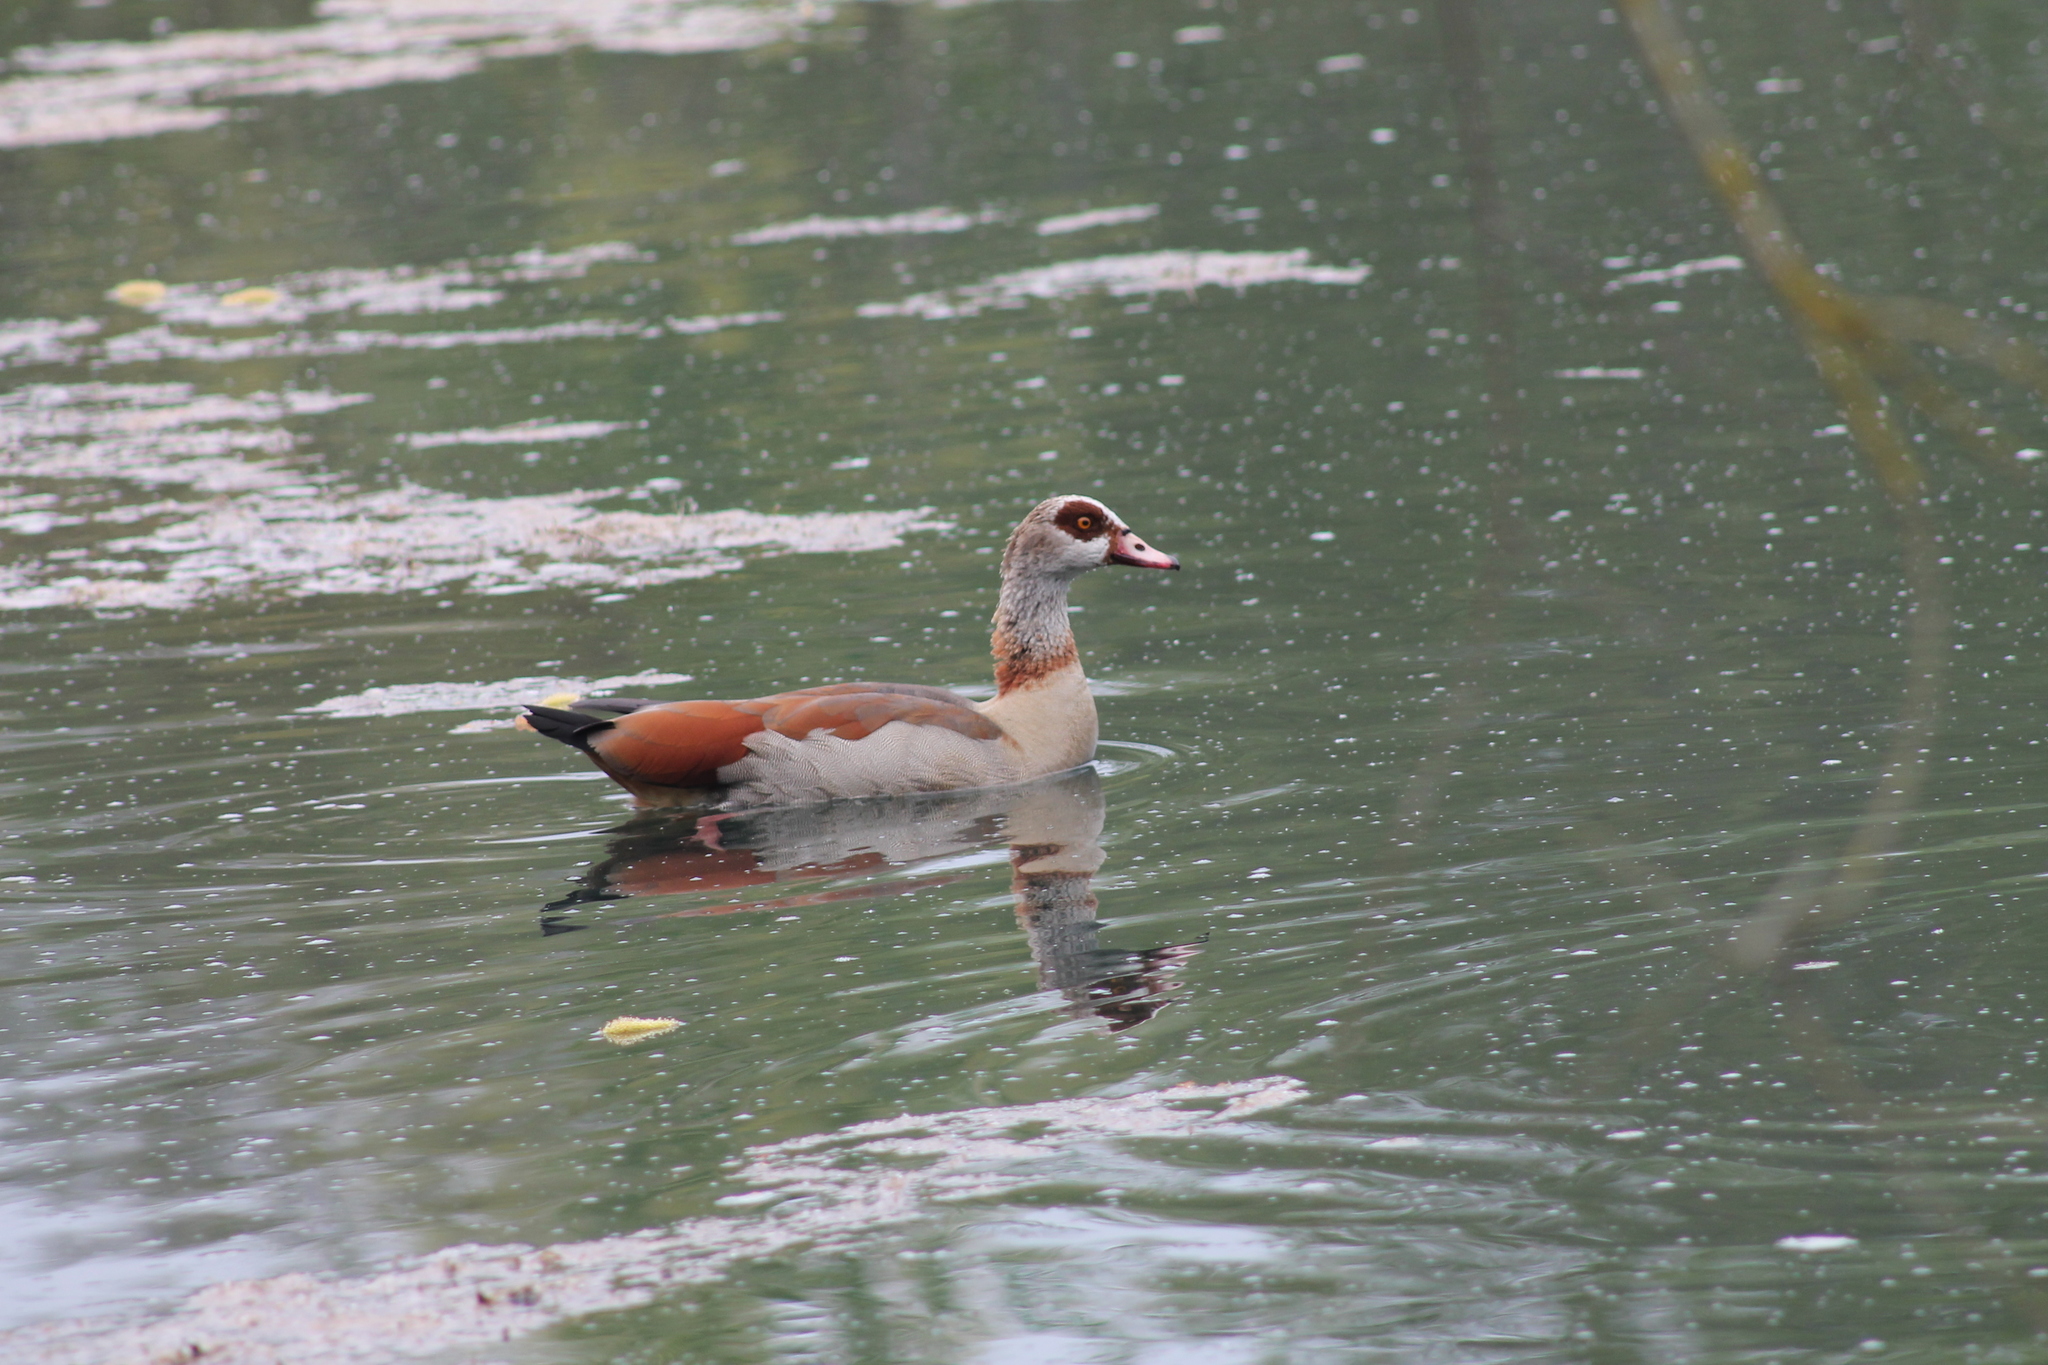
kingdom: Animalia
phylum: Chordata
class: Aves
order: Anseriformes
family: Anatidae
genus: Alopochen
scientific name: Alopochen aegyptiaca
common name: Egyptian goose
